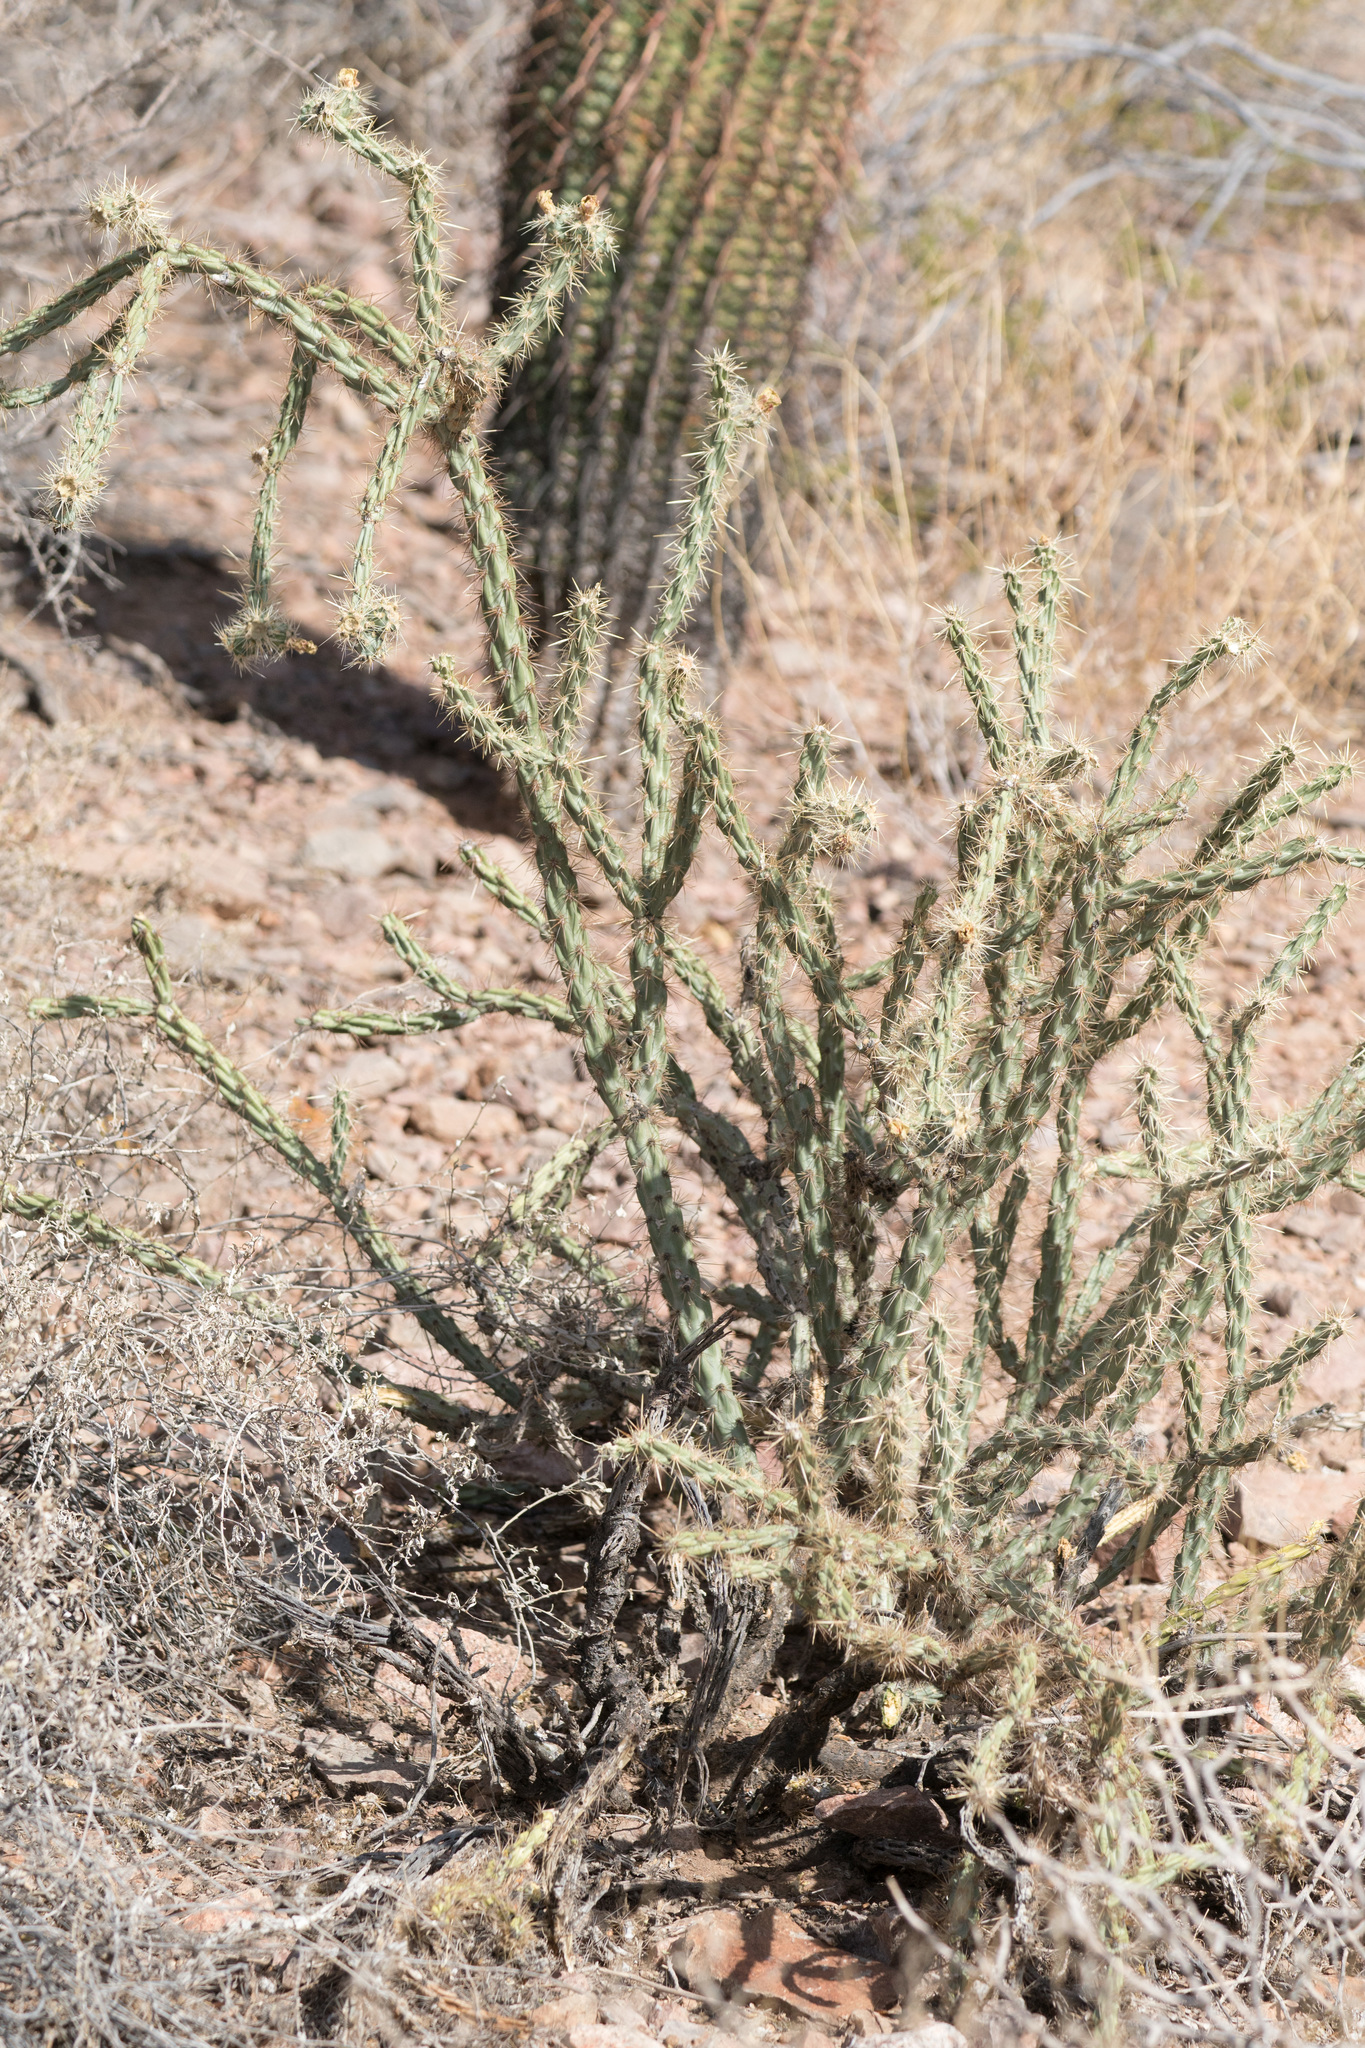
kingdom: Plantae
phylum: Tracheophyta
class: Magnoliopsida
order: Caryophyllales
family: Cactaceae
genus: Cylindropuntia
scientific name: Cylindropuntia acanthocarpa
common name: Buckhorn cholla
